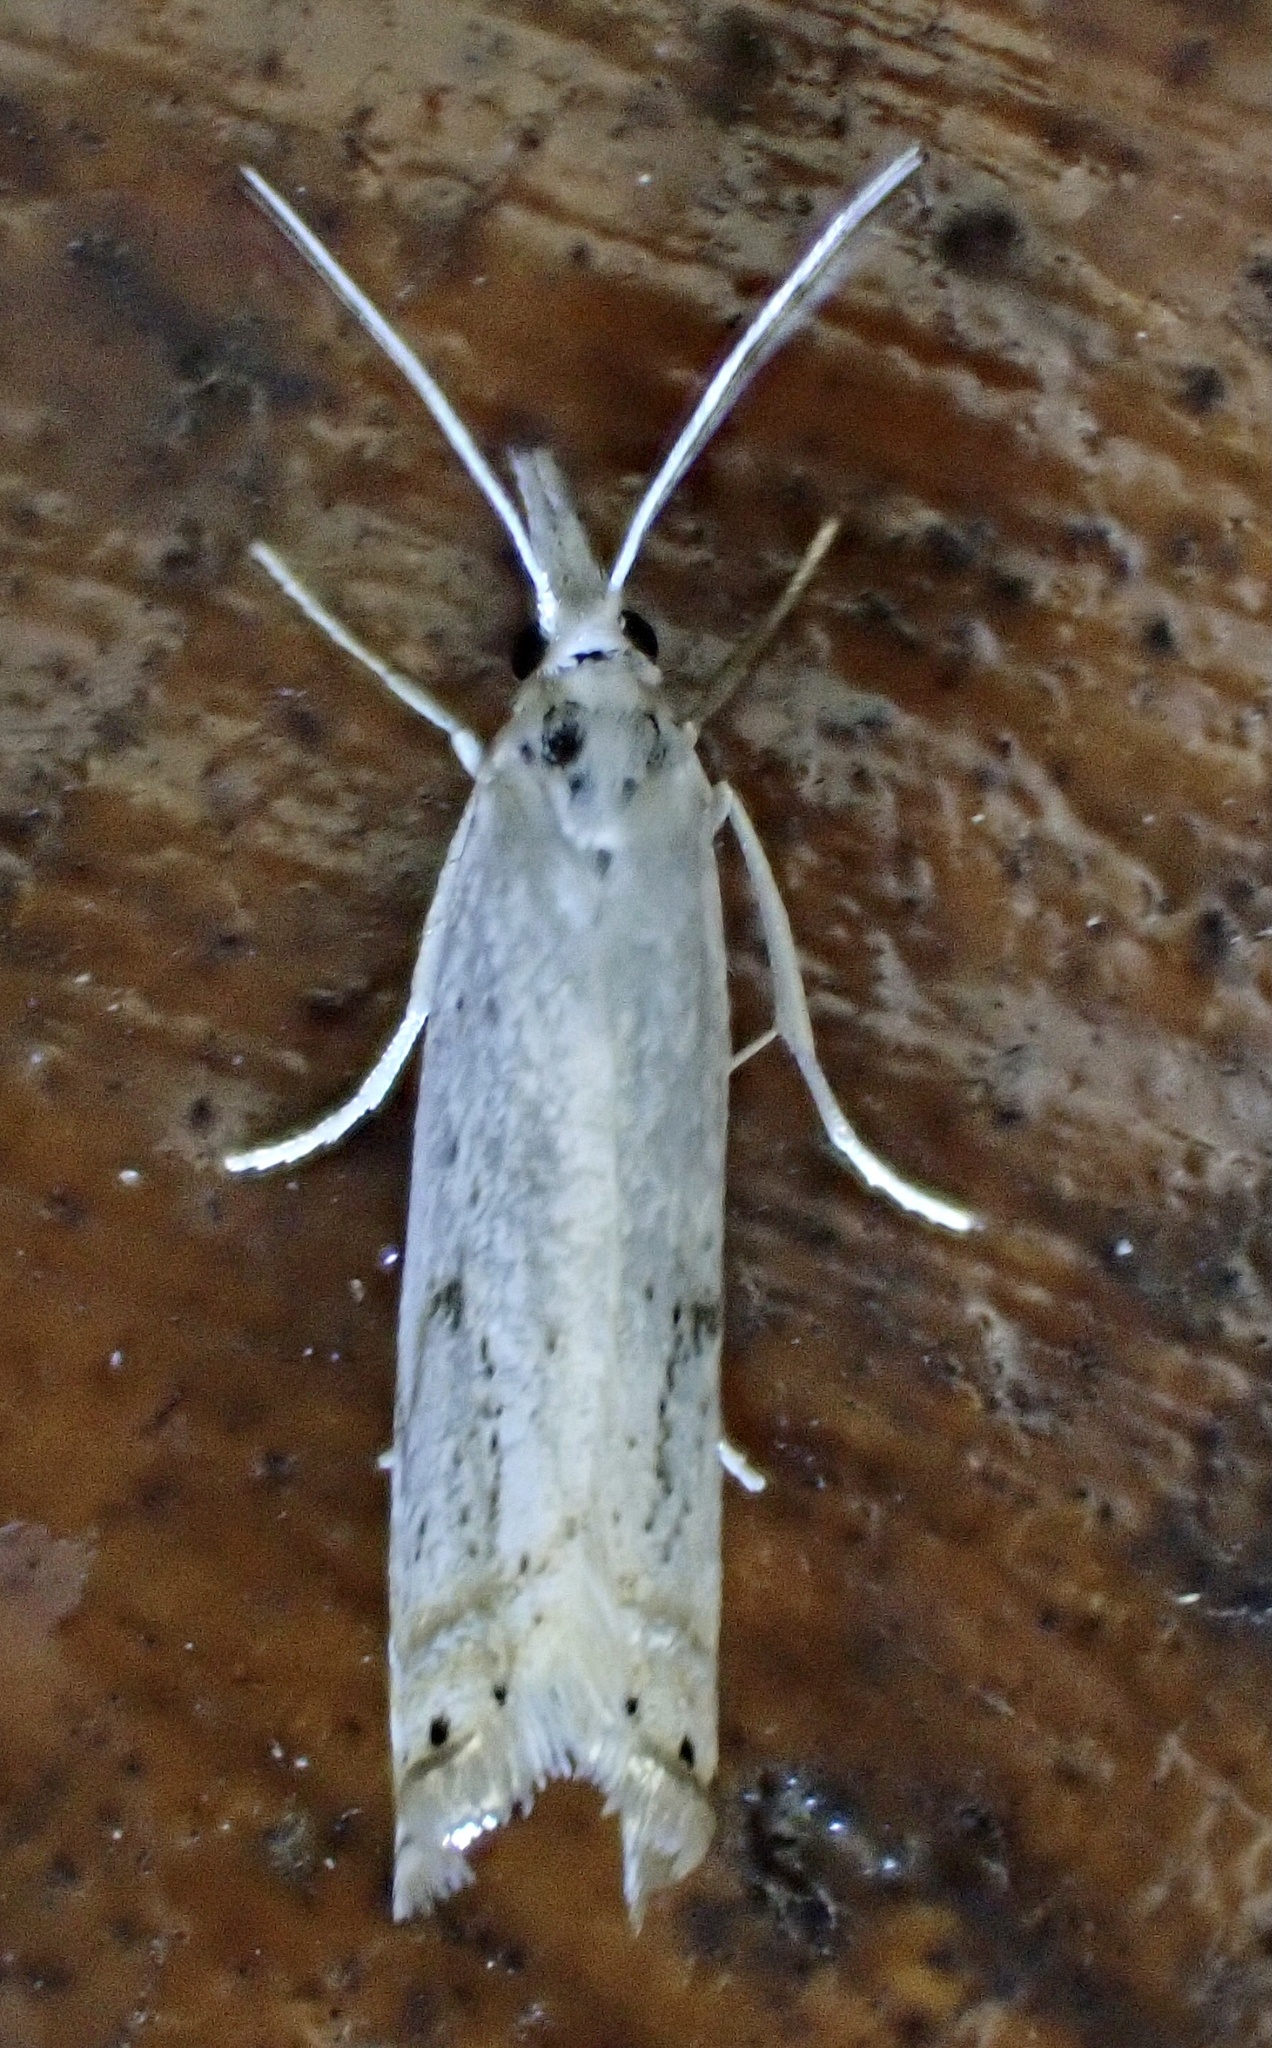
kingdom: Animalia
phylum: Arthropoda
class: Insecta
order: Lepidoptera
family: Crambidae
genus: Crambus
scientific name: Crambus albellus
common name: Small white grass-veneer
